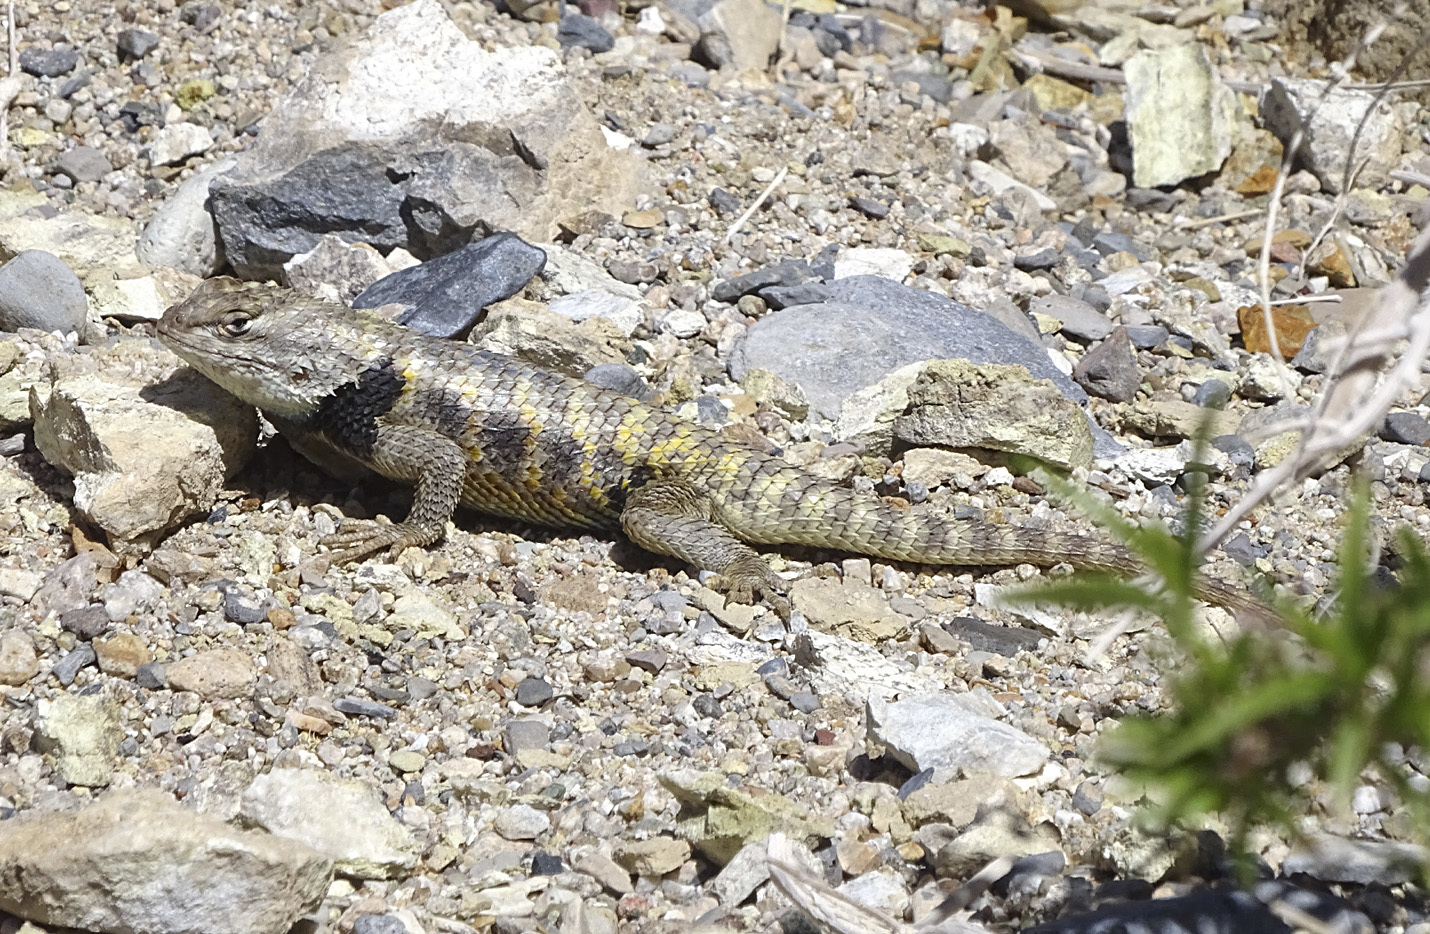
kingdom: Animalia
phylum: Chordata
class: Squamata
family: Phrynosomatidae
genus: Sceloporus
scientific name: Sceloporus uniformis
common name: Yellow-backed spiny lizard
